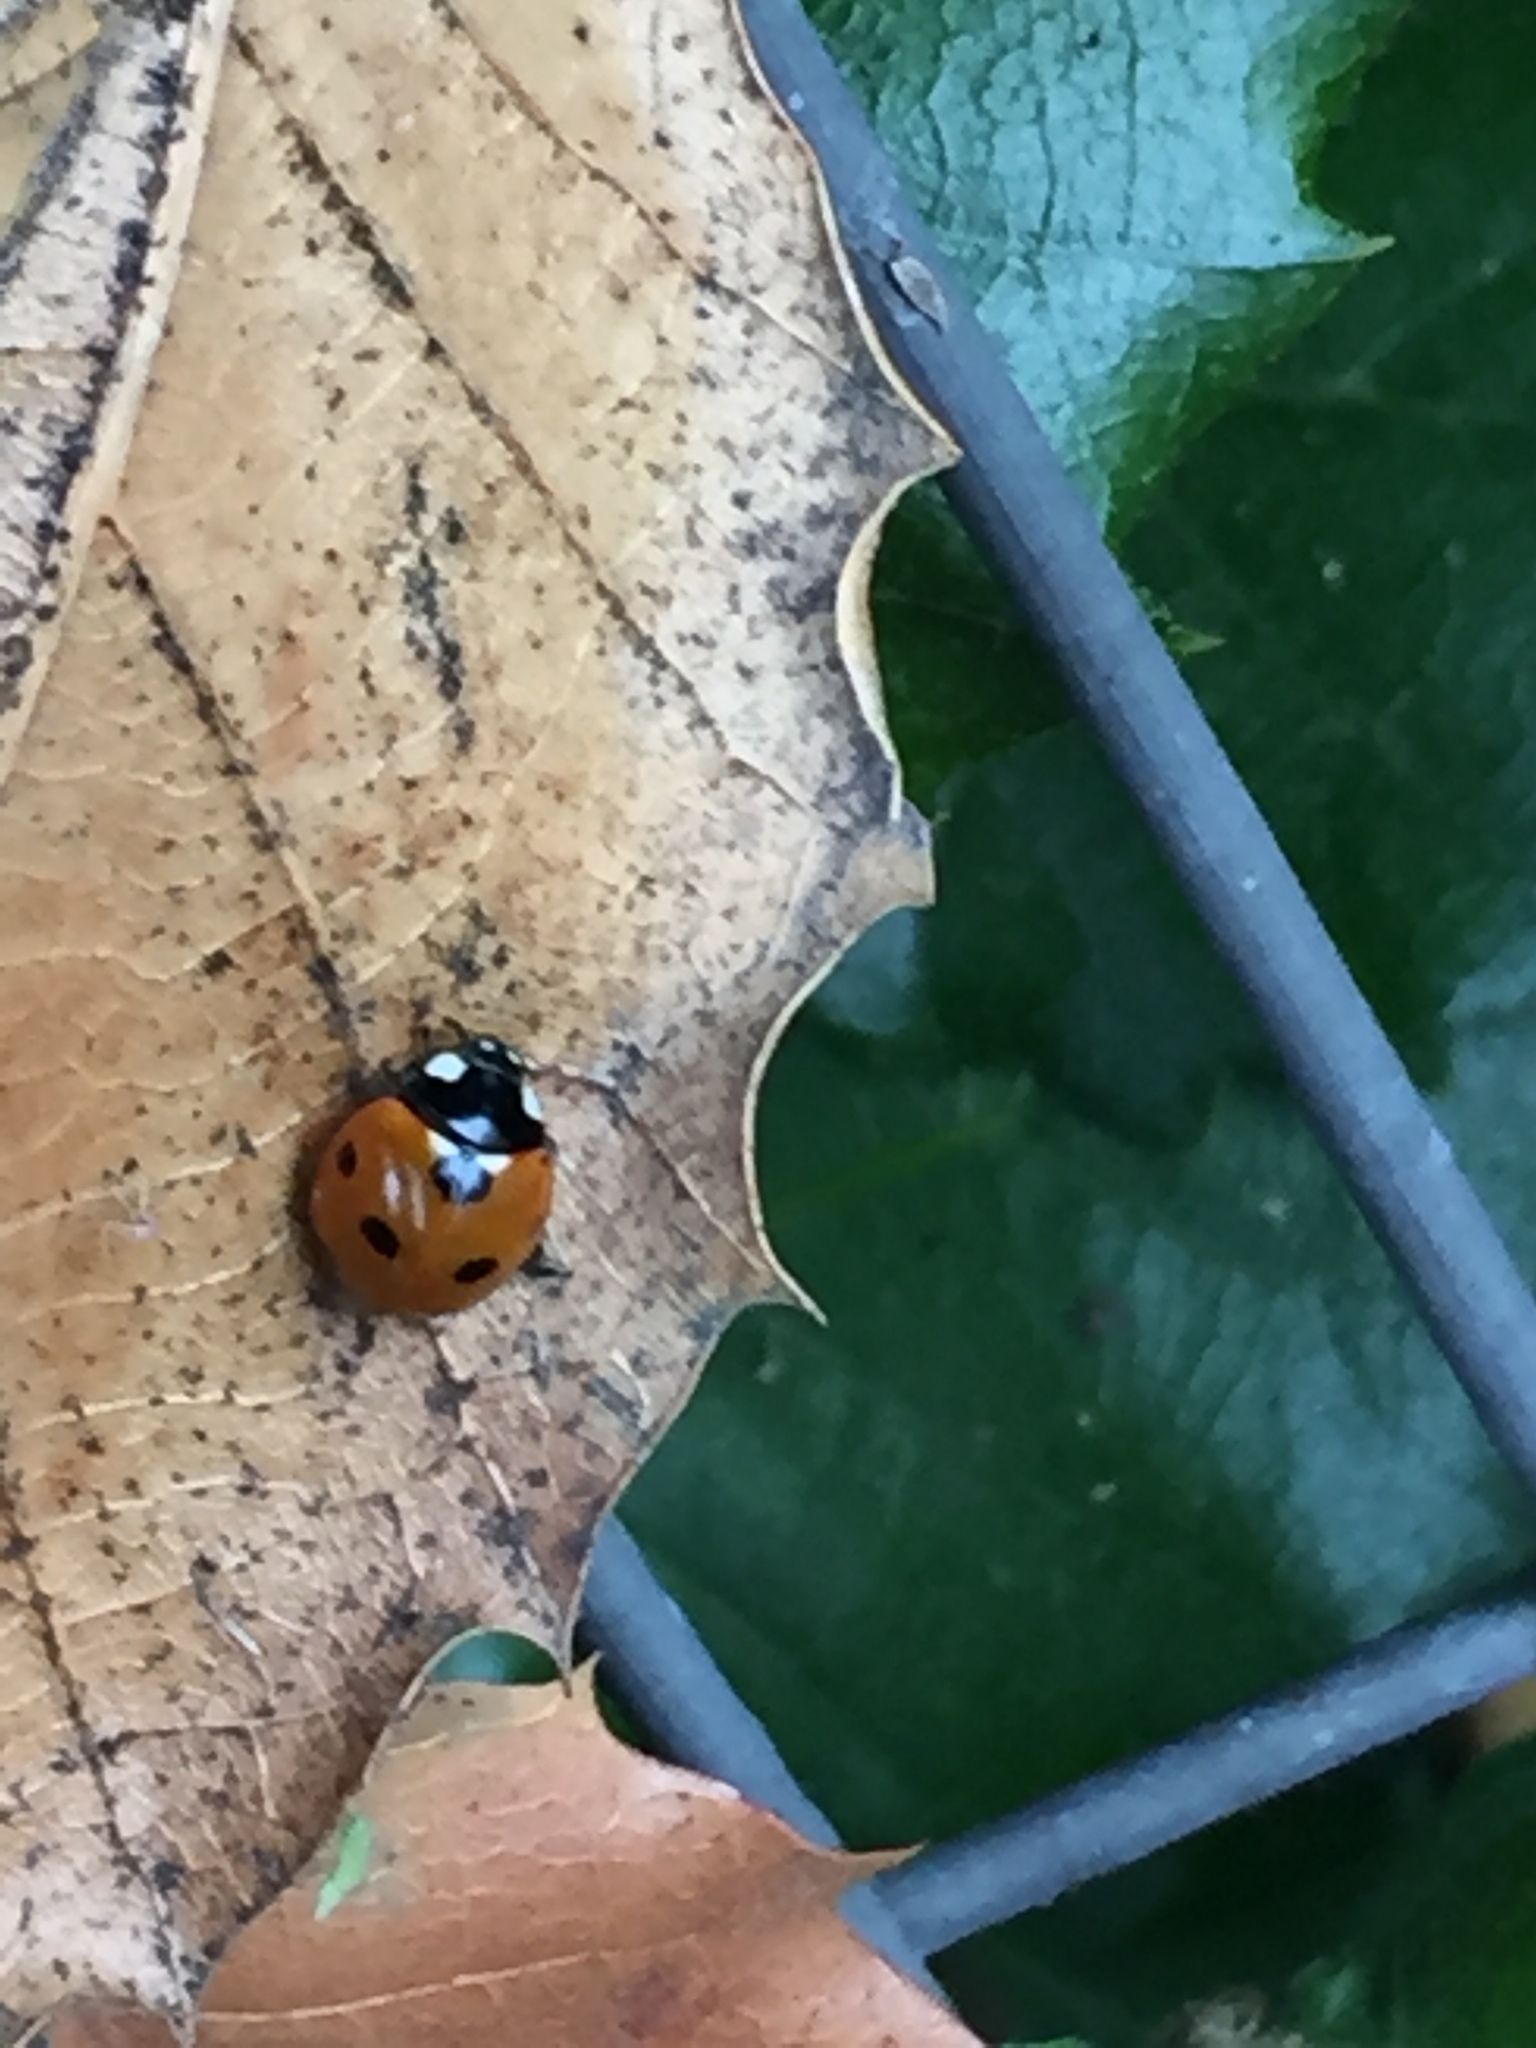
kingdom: Animalia
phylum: Arthropoda
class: Insecta
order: Coleoptera
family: Coccinellidae
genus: Coccinella
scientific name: Coccinella septempunctata
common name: Sevenspotted lady beetle
